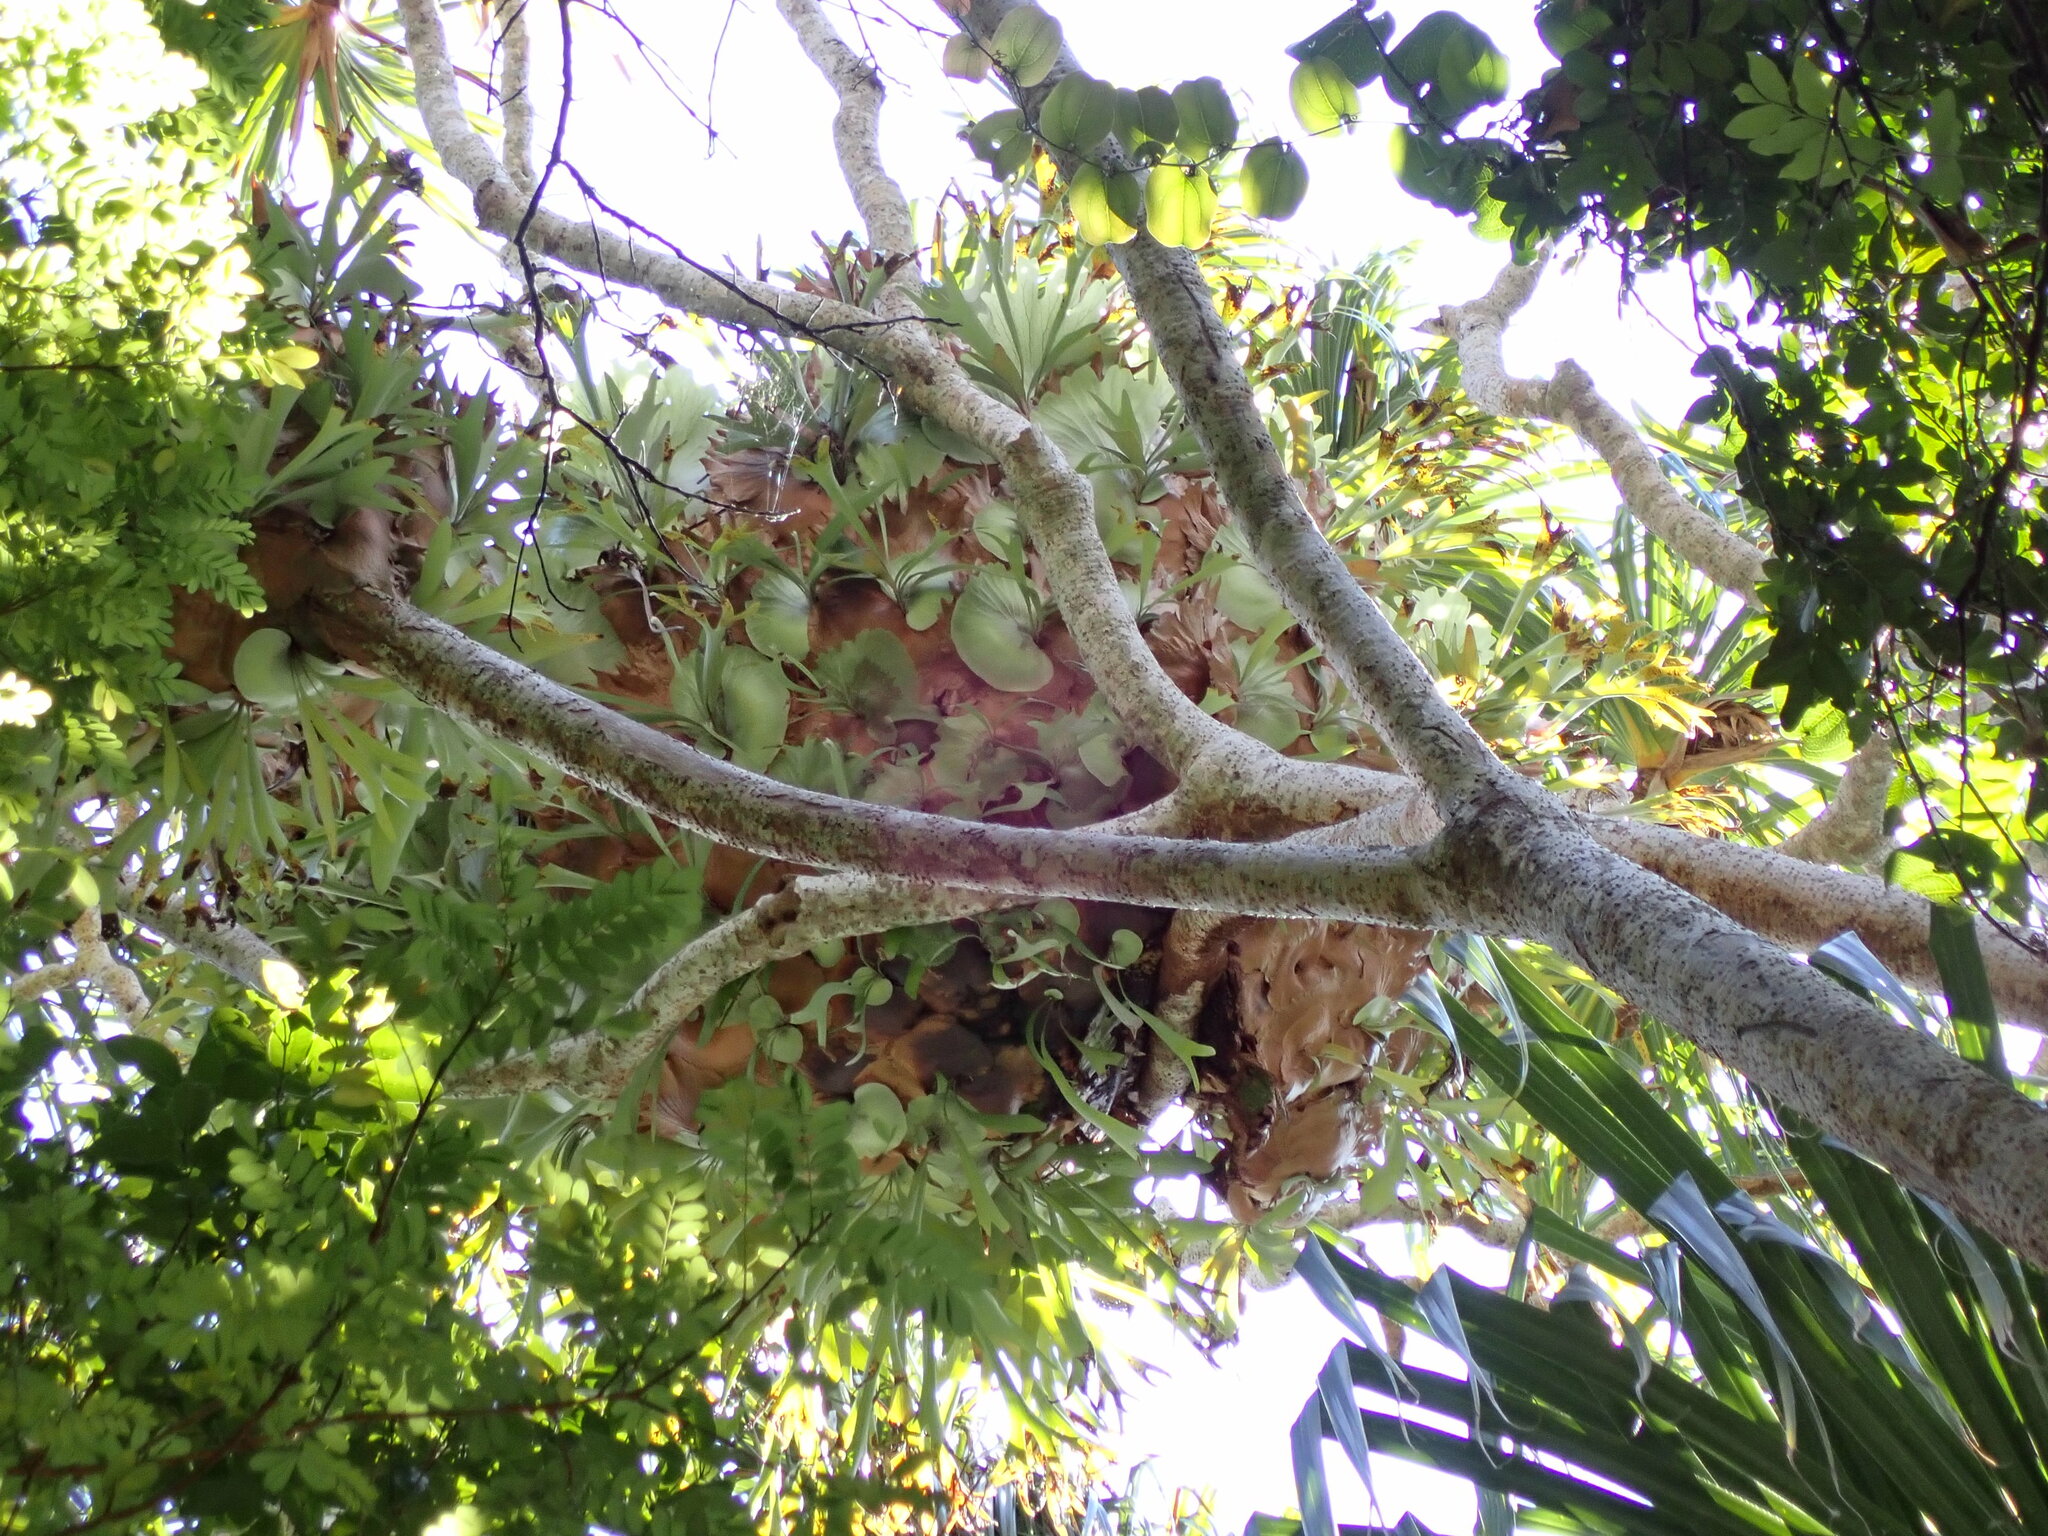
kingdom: Plantae
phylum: Tracheophyta
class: Polypodiopsida
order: Polypodiales
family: Polypodiaceae
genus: Platycerium
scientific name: Platycerium bifurcatum
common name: Elkhorn fern
